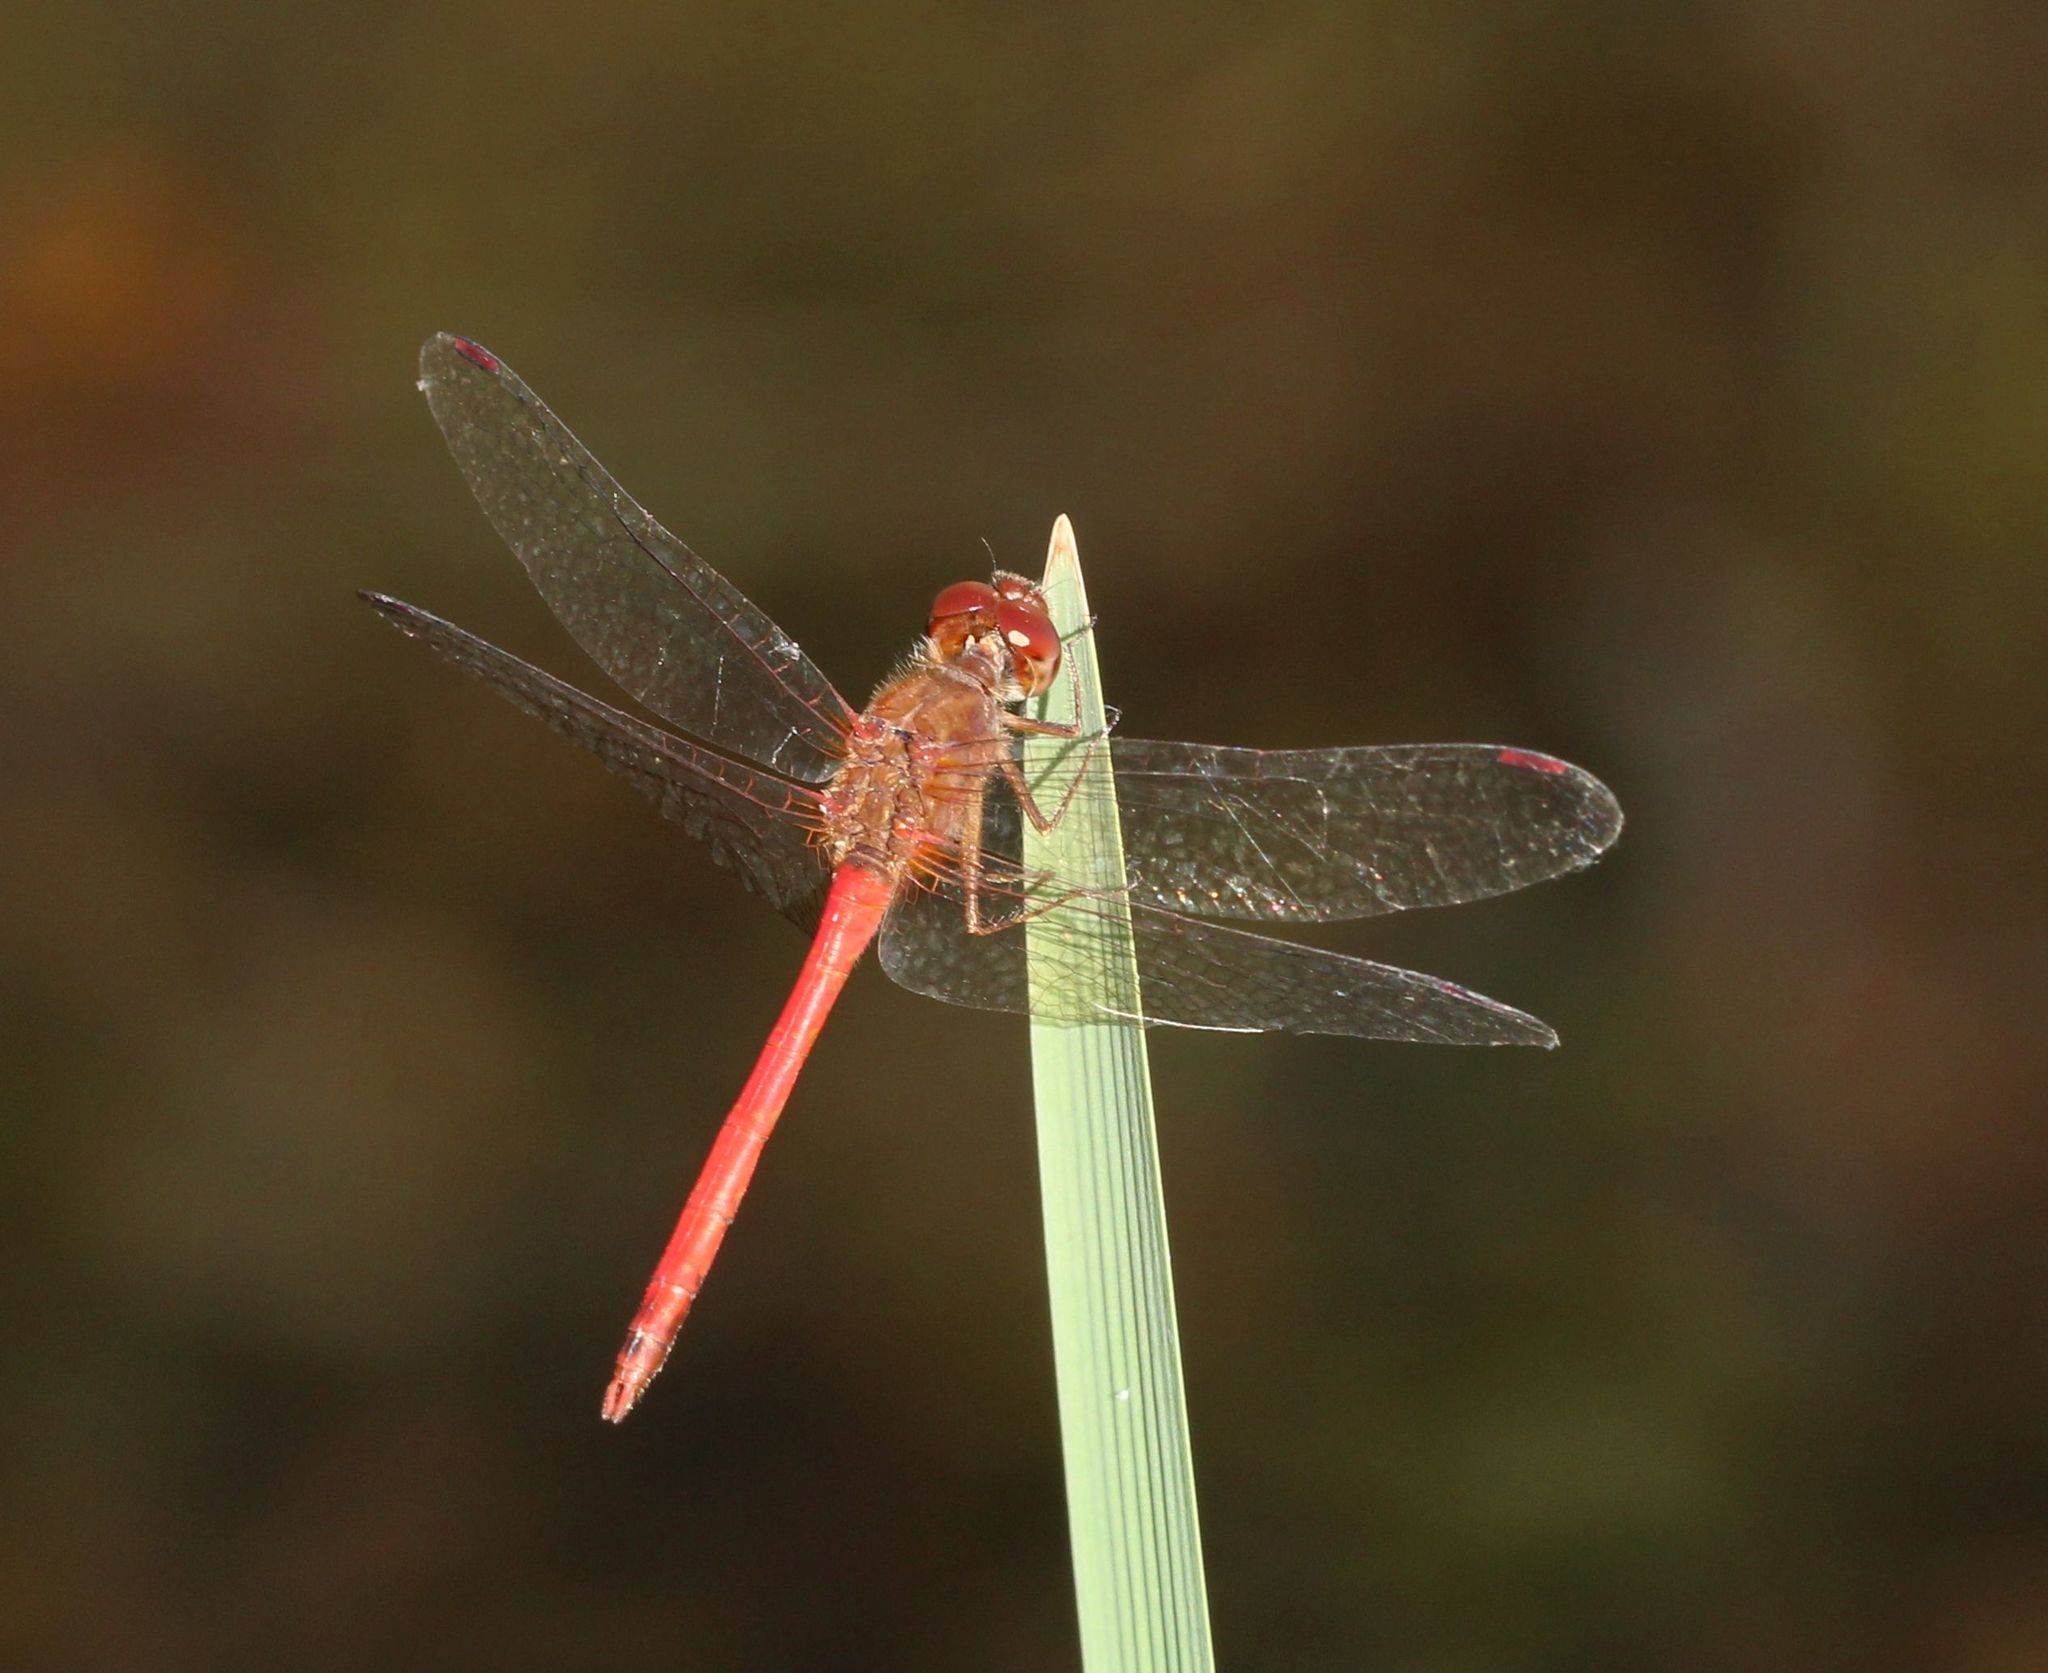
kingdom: Animalia
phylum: Arthropoda
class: Insecta
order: Odonata
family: Libellulidae
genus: Sympetrum
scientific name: Sympetrum vicinum
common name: Autumn meadowhawk
